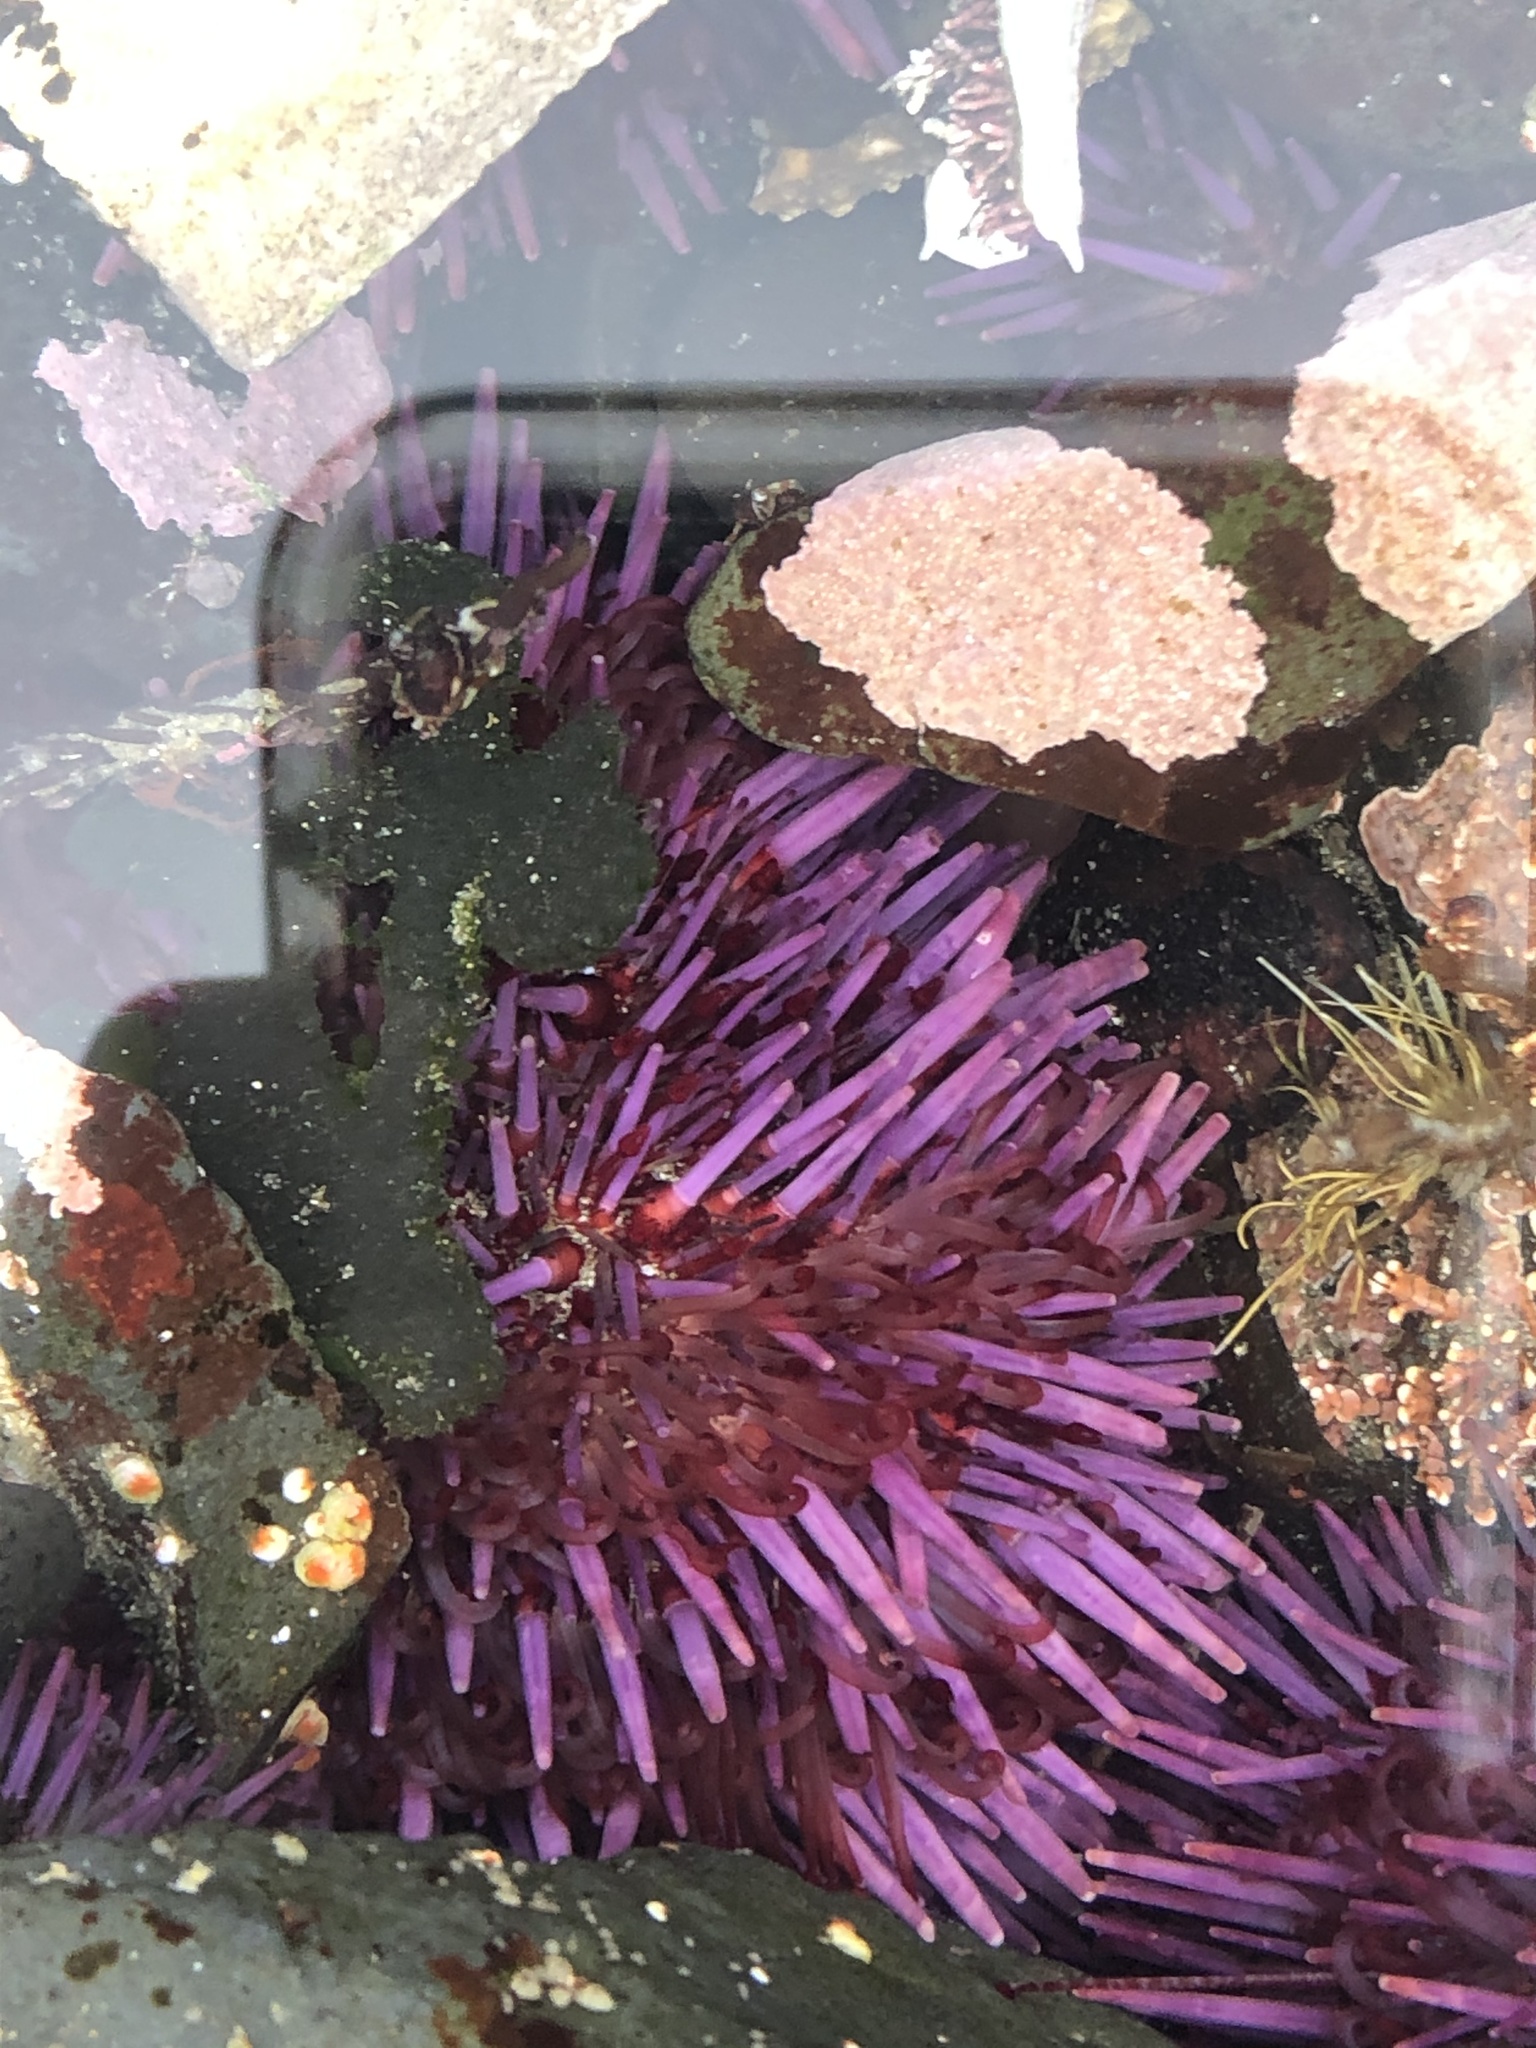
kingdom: Animalia
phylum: Echinodermata
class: Echinoidea
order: Camarodonta
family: Strongylocentrotidae
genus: Strongylocentrotus
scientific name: Strongylocentrotus purpuratus
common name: Purple sea urchin
